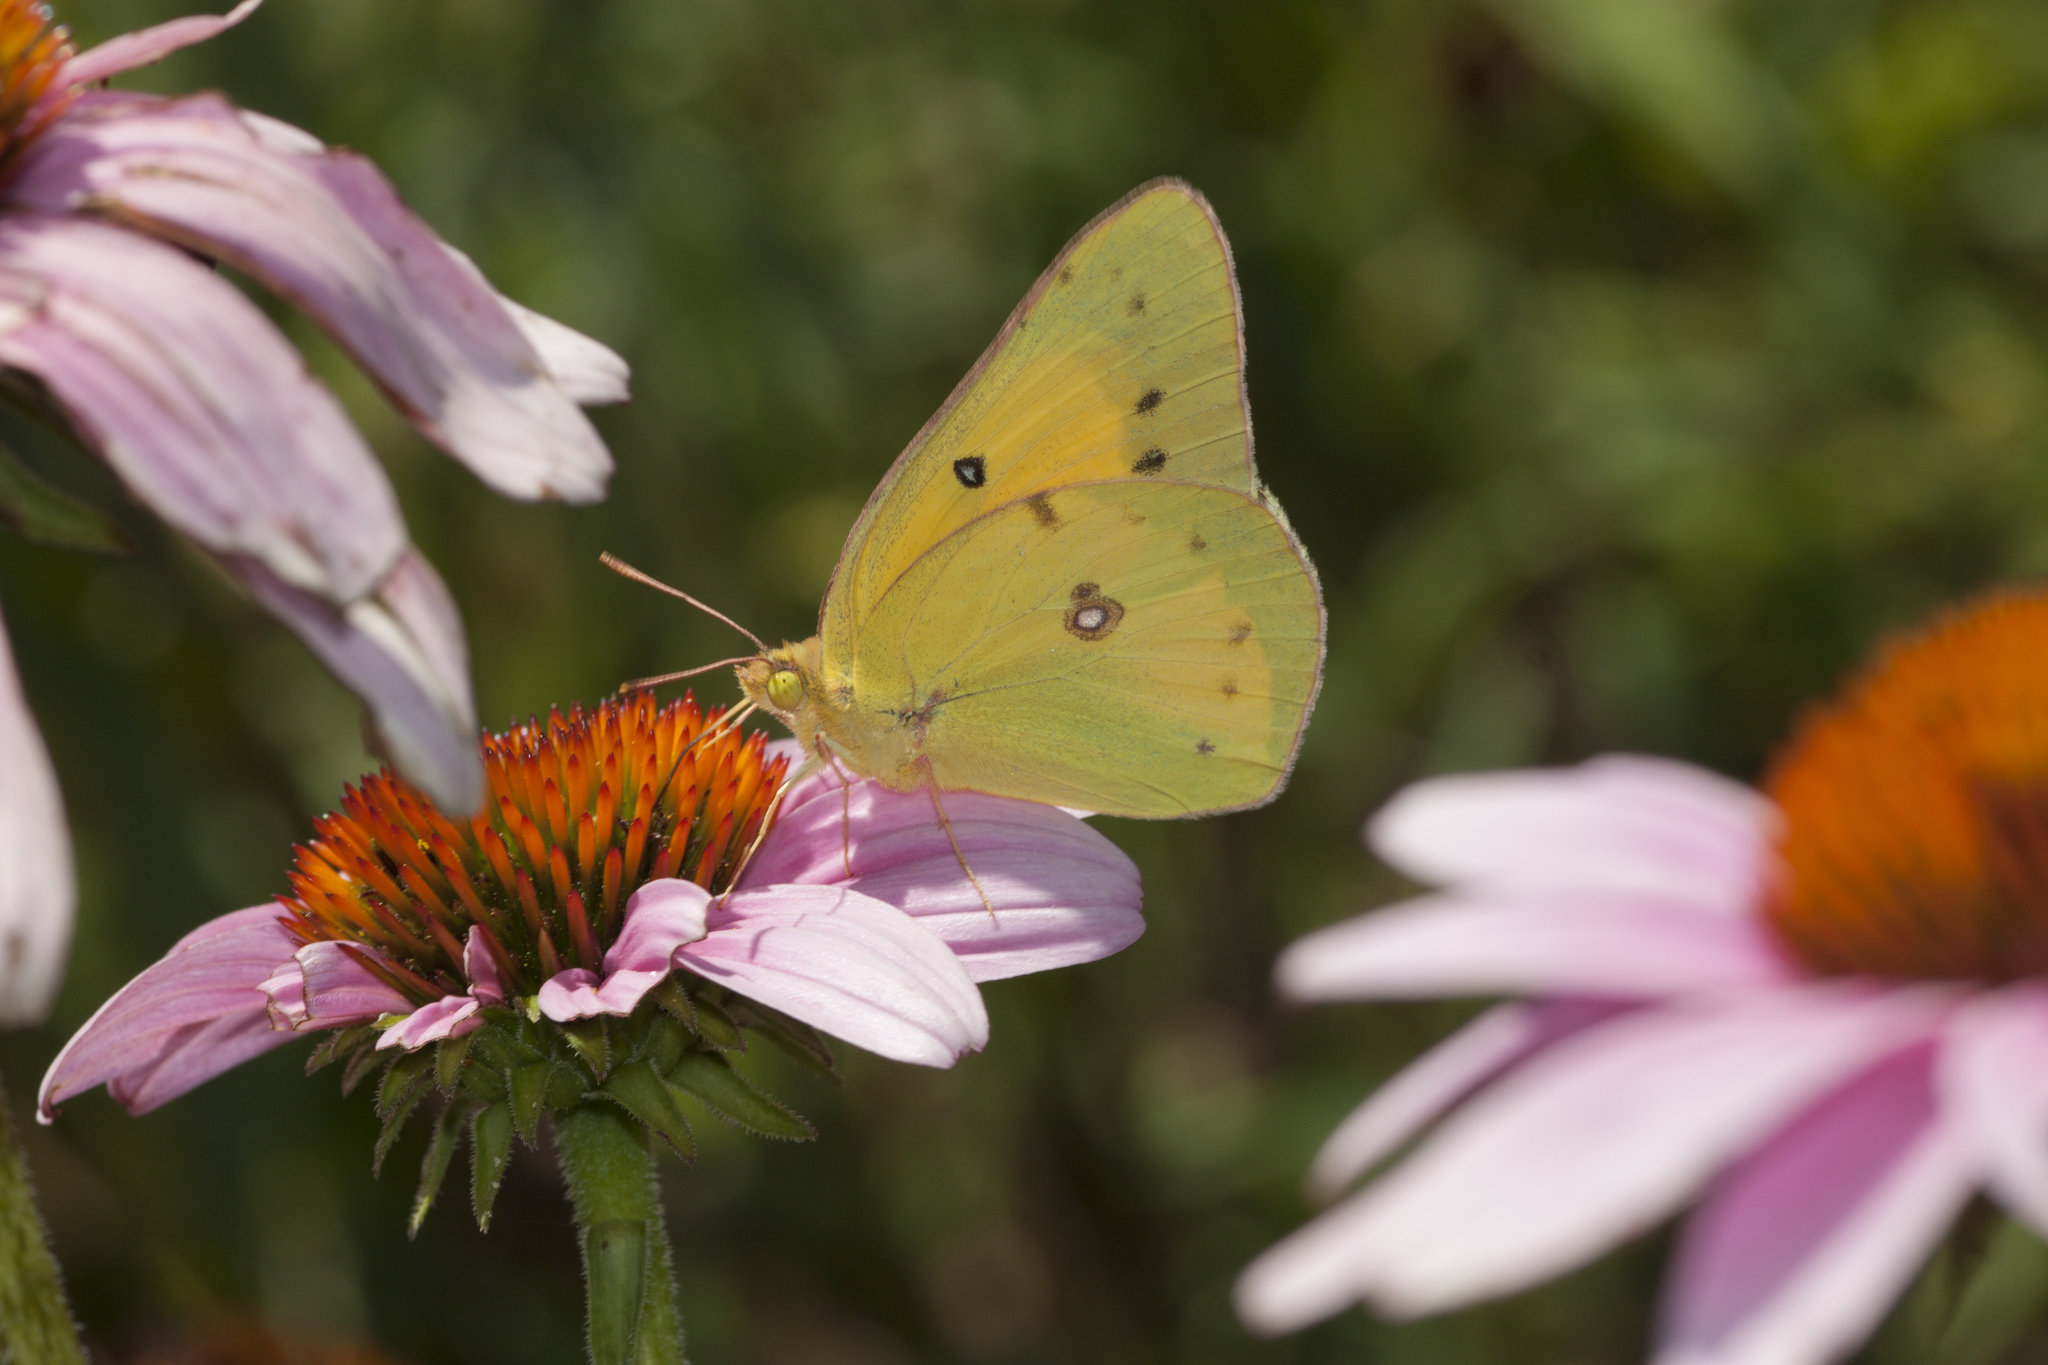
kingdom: Animalia
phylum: Arthropoda
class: Insecta
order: Lepidoptera
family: Pieridae
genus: Colias
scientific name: Colias eurytheme
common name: Alfalfa butterfly
